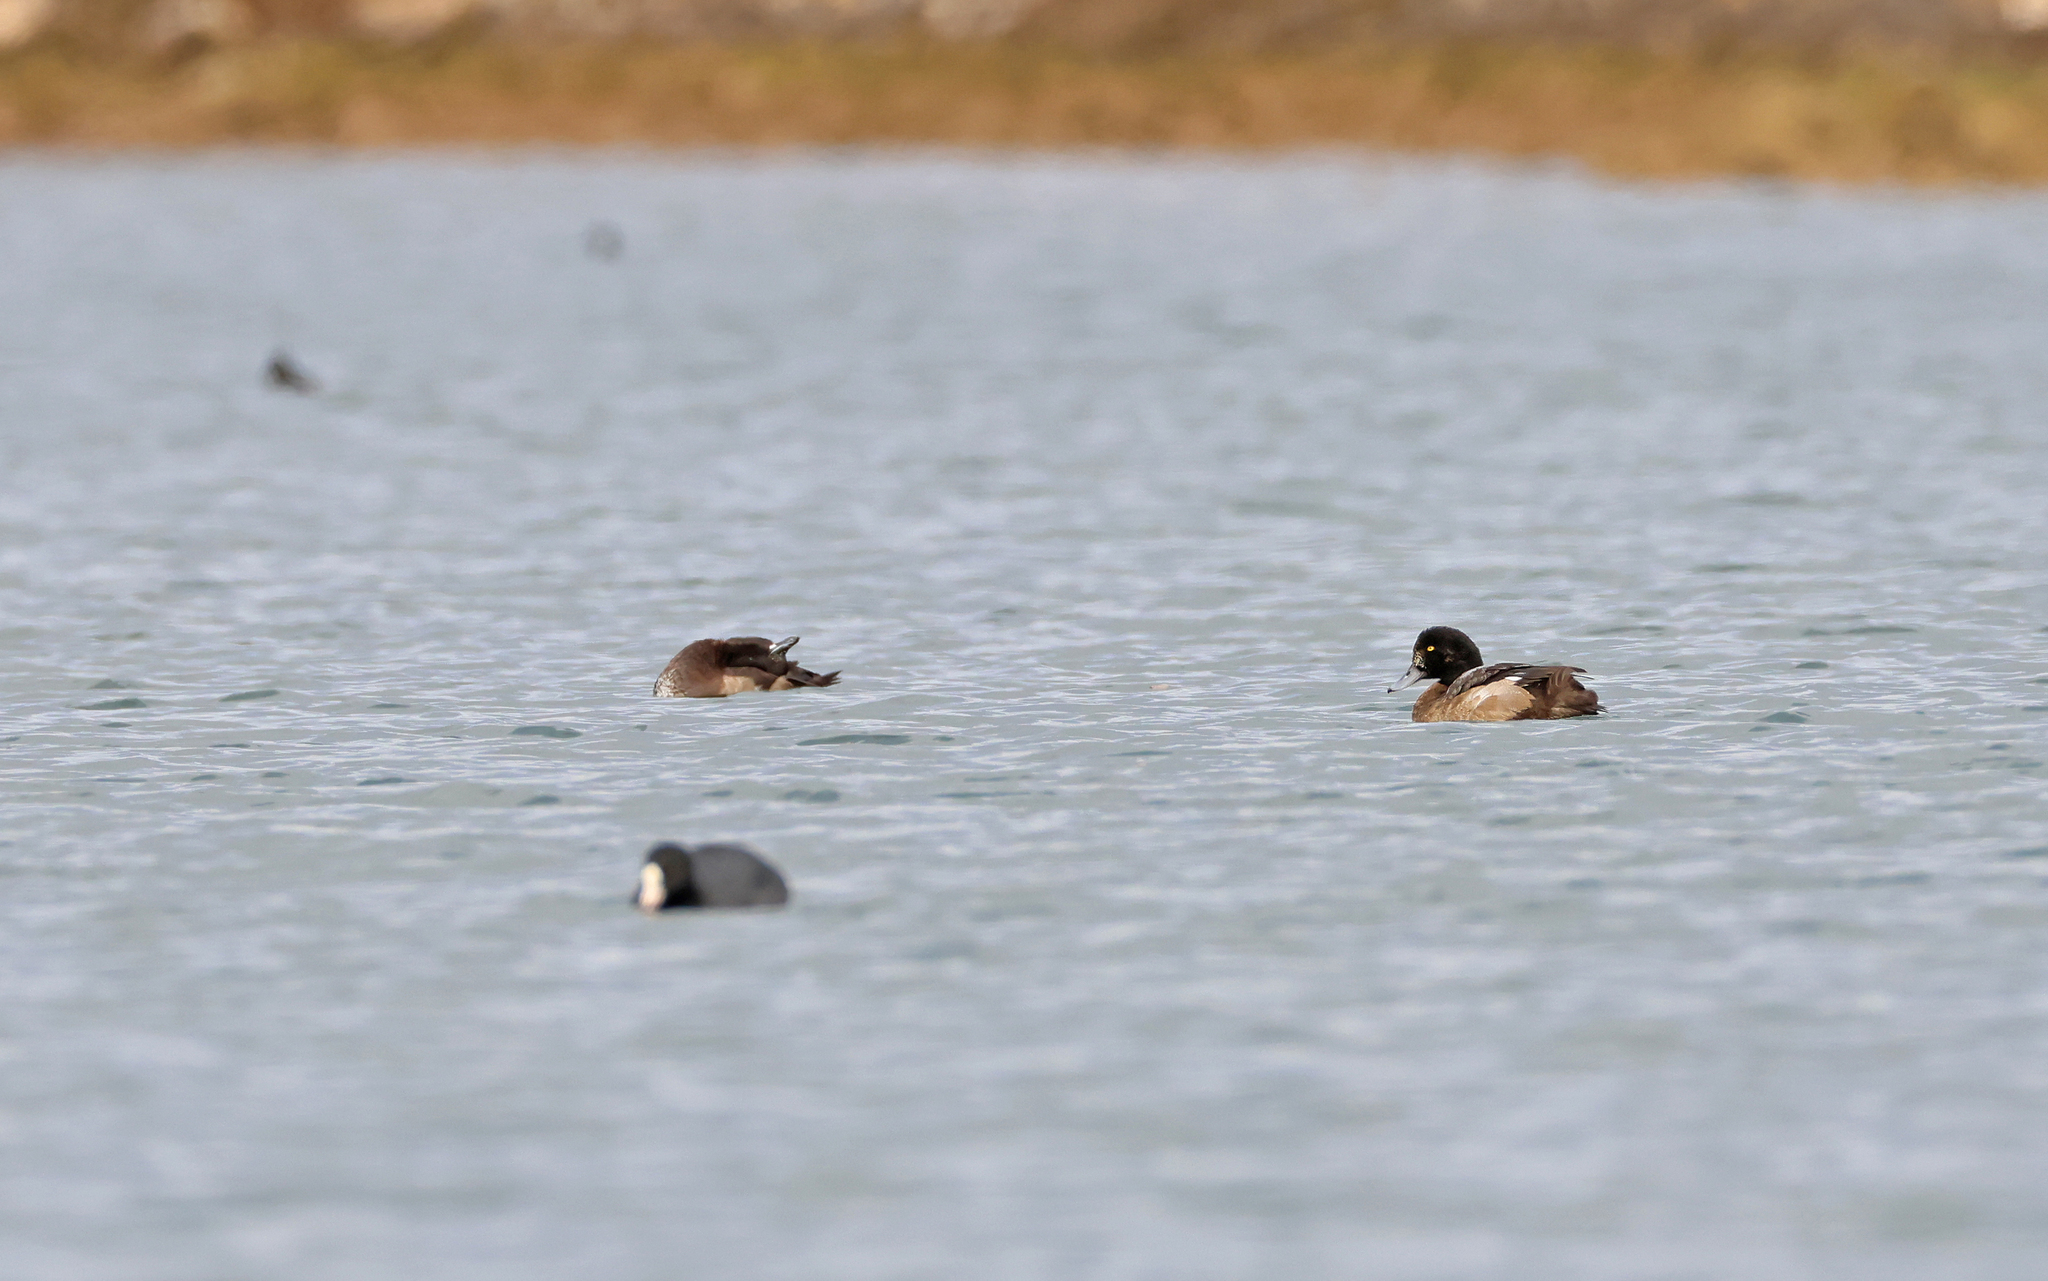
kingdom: Animalia
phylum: Chordata
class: Aves
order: Anseriformes
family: Anatidae
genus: Aythya
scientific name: Aythya marila
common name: Greater scaup
